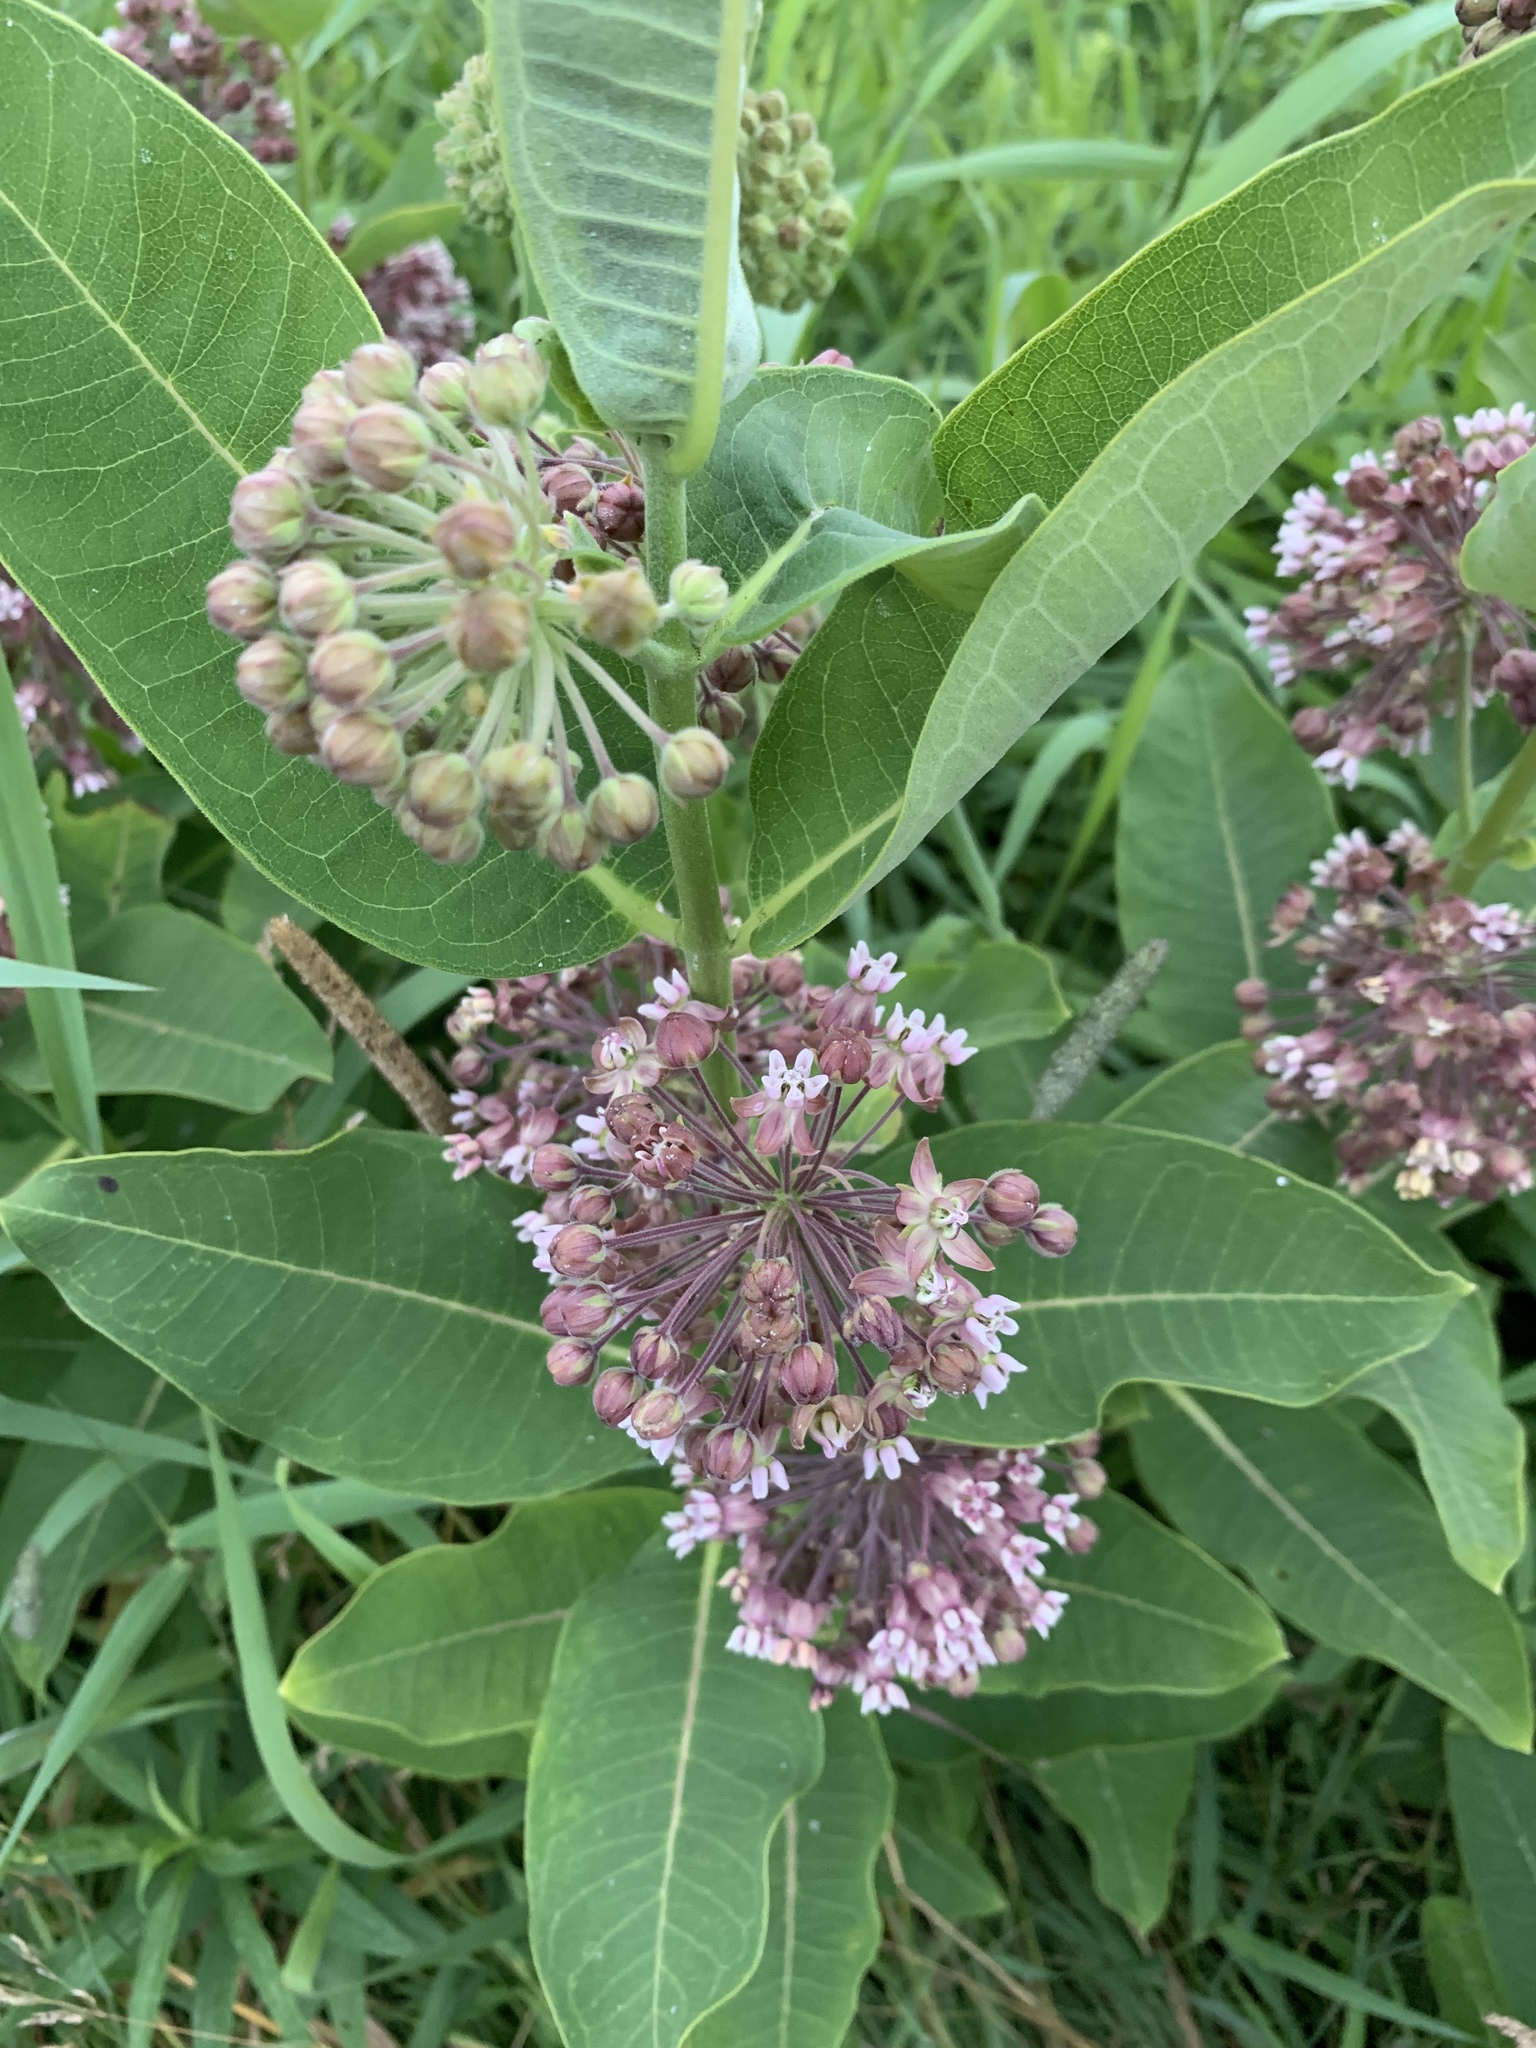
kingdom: Plantae
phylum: Tracheophyta
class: Magnoliopsida
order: Gentianales
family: Apocynaceae
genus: Asclepias
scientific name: Asclepias syriaca
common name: Common milkweed
